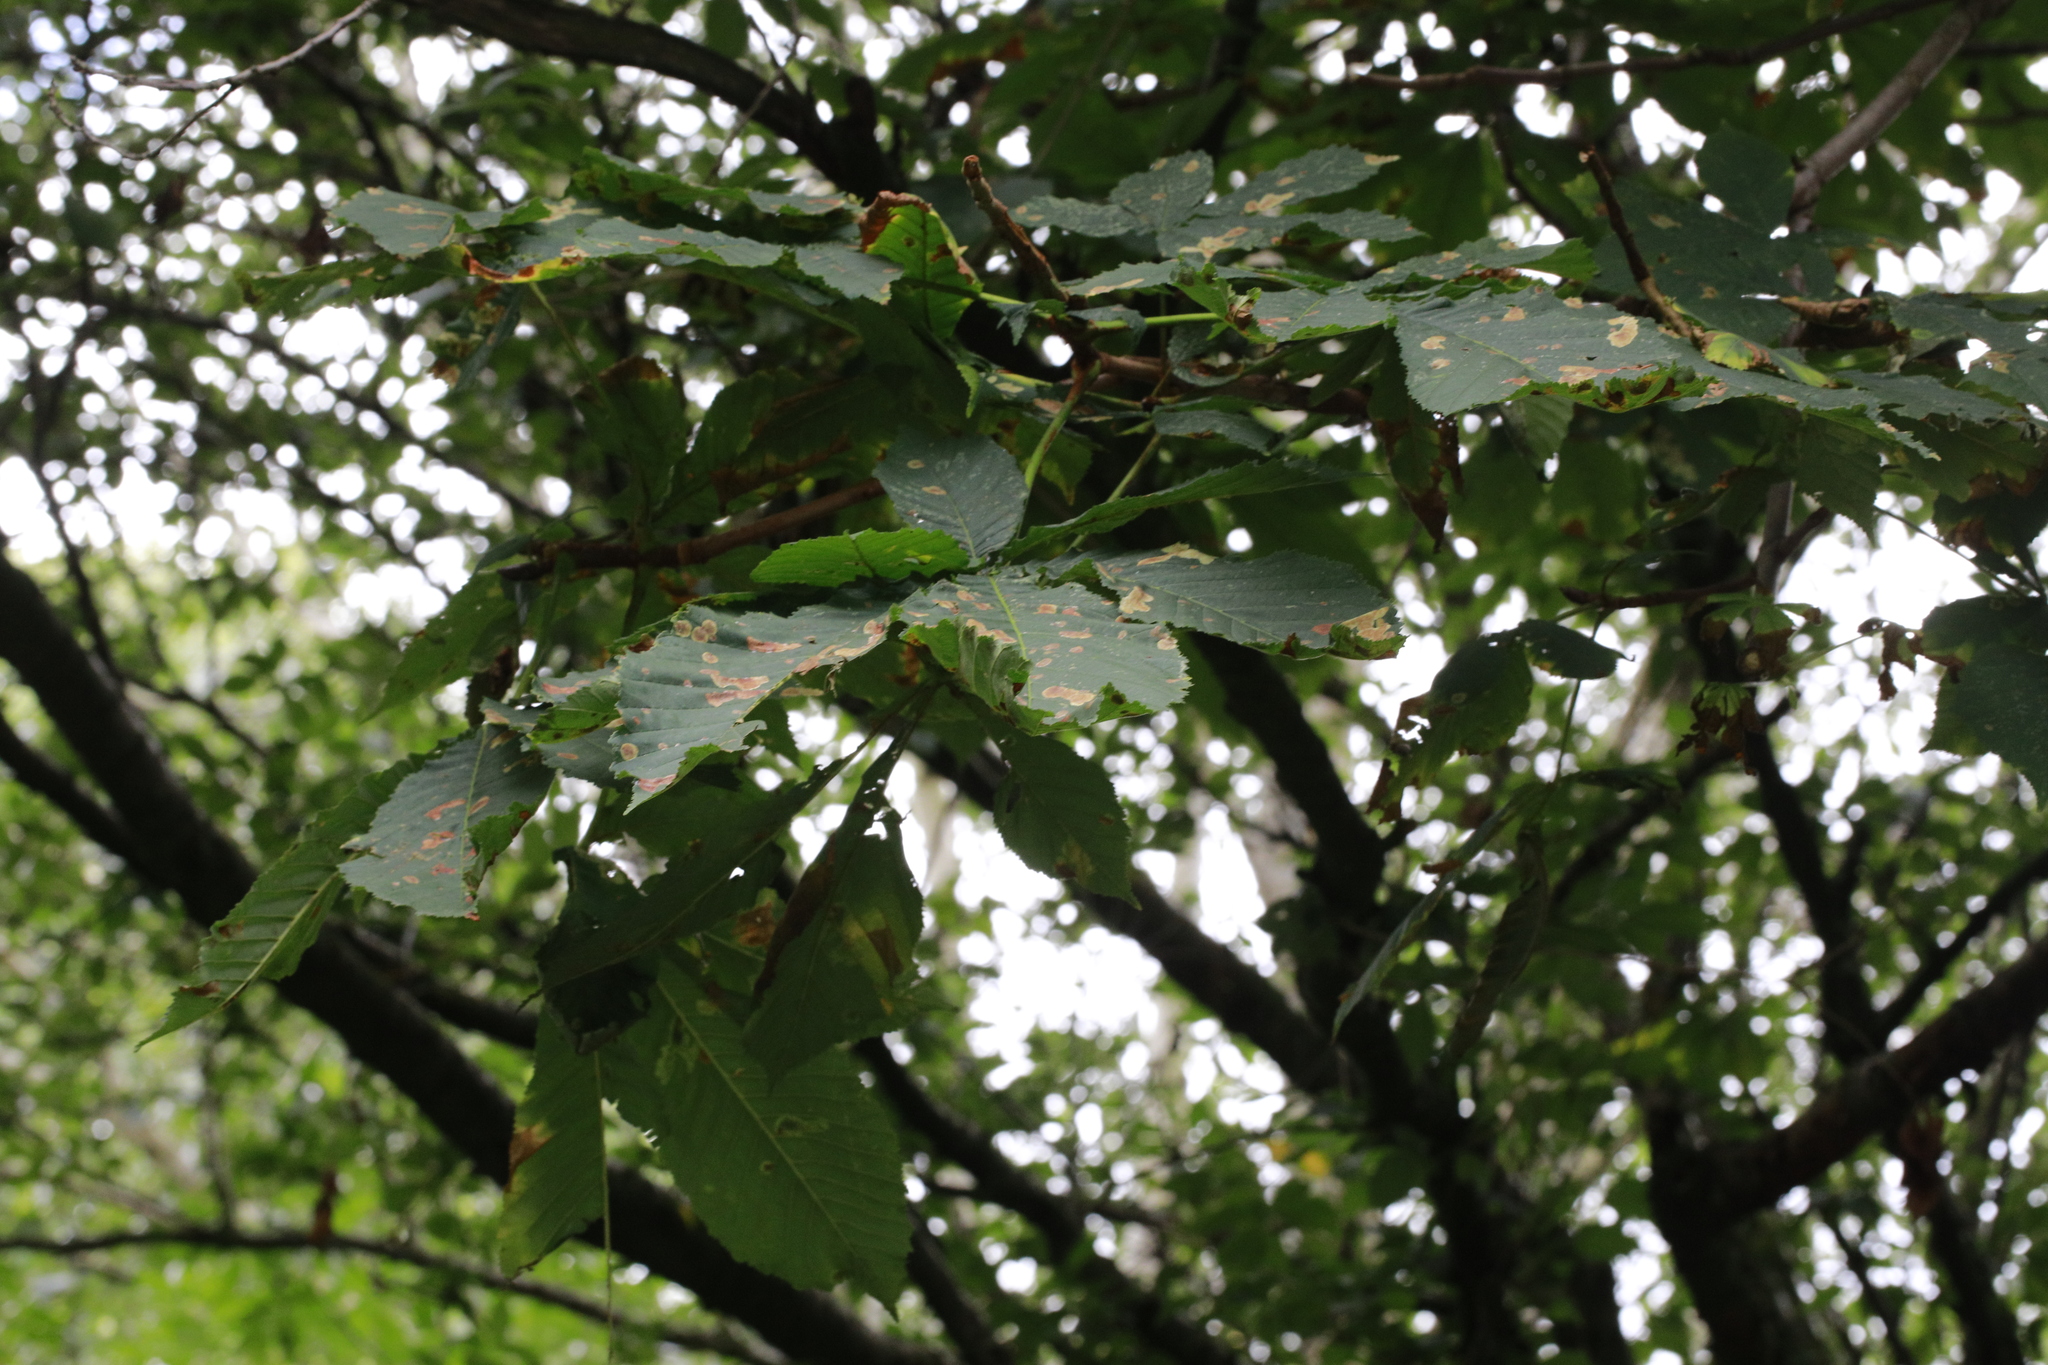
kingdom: Animalia
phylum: Arthropoda
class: Insecta
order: Lepidoptera
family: Gracillariidae
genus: Cameraria
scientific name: Cameraria ohridella
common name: Horse-chestnut leaf-miner
